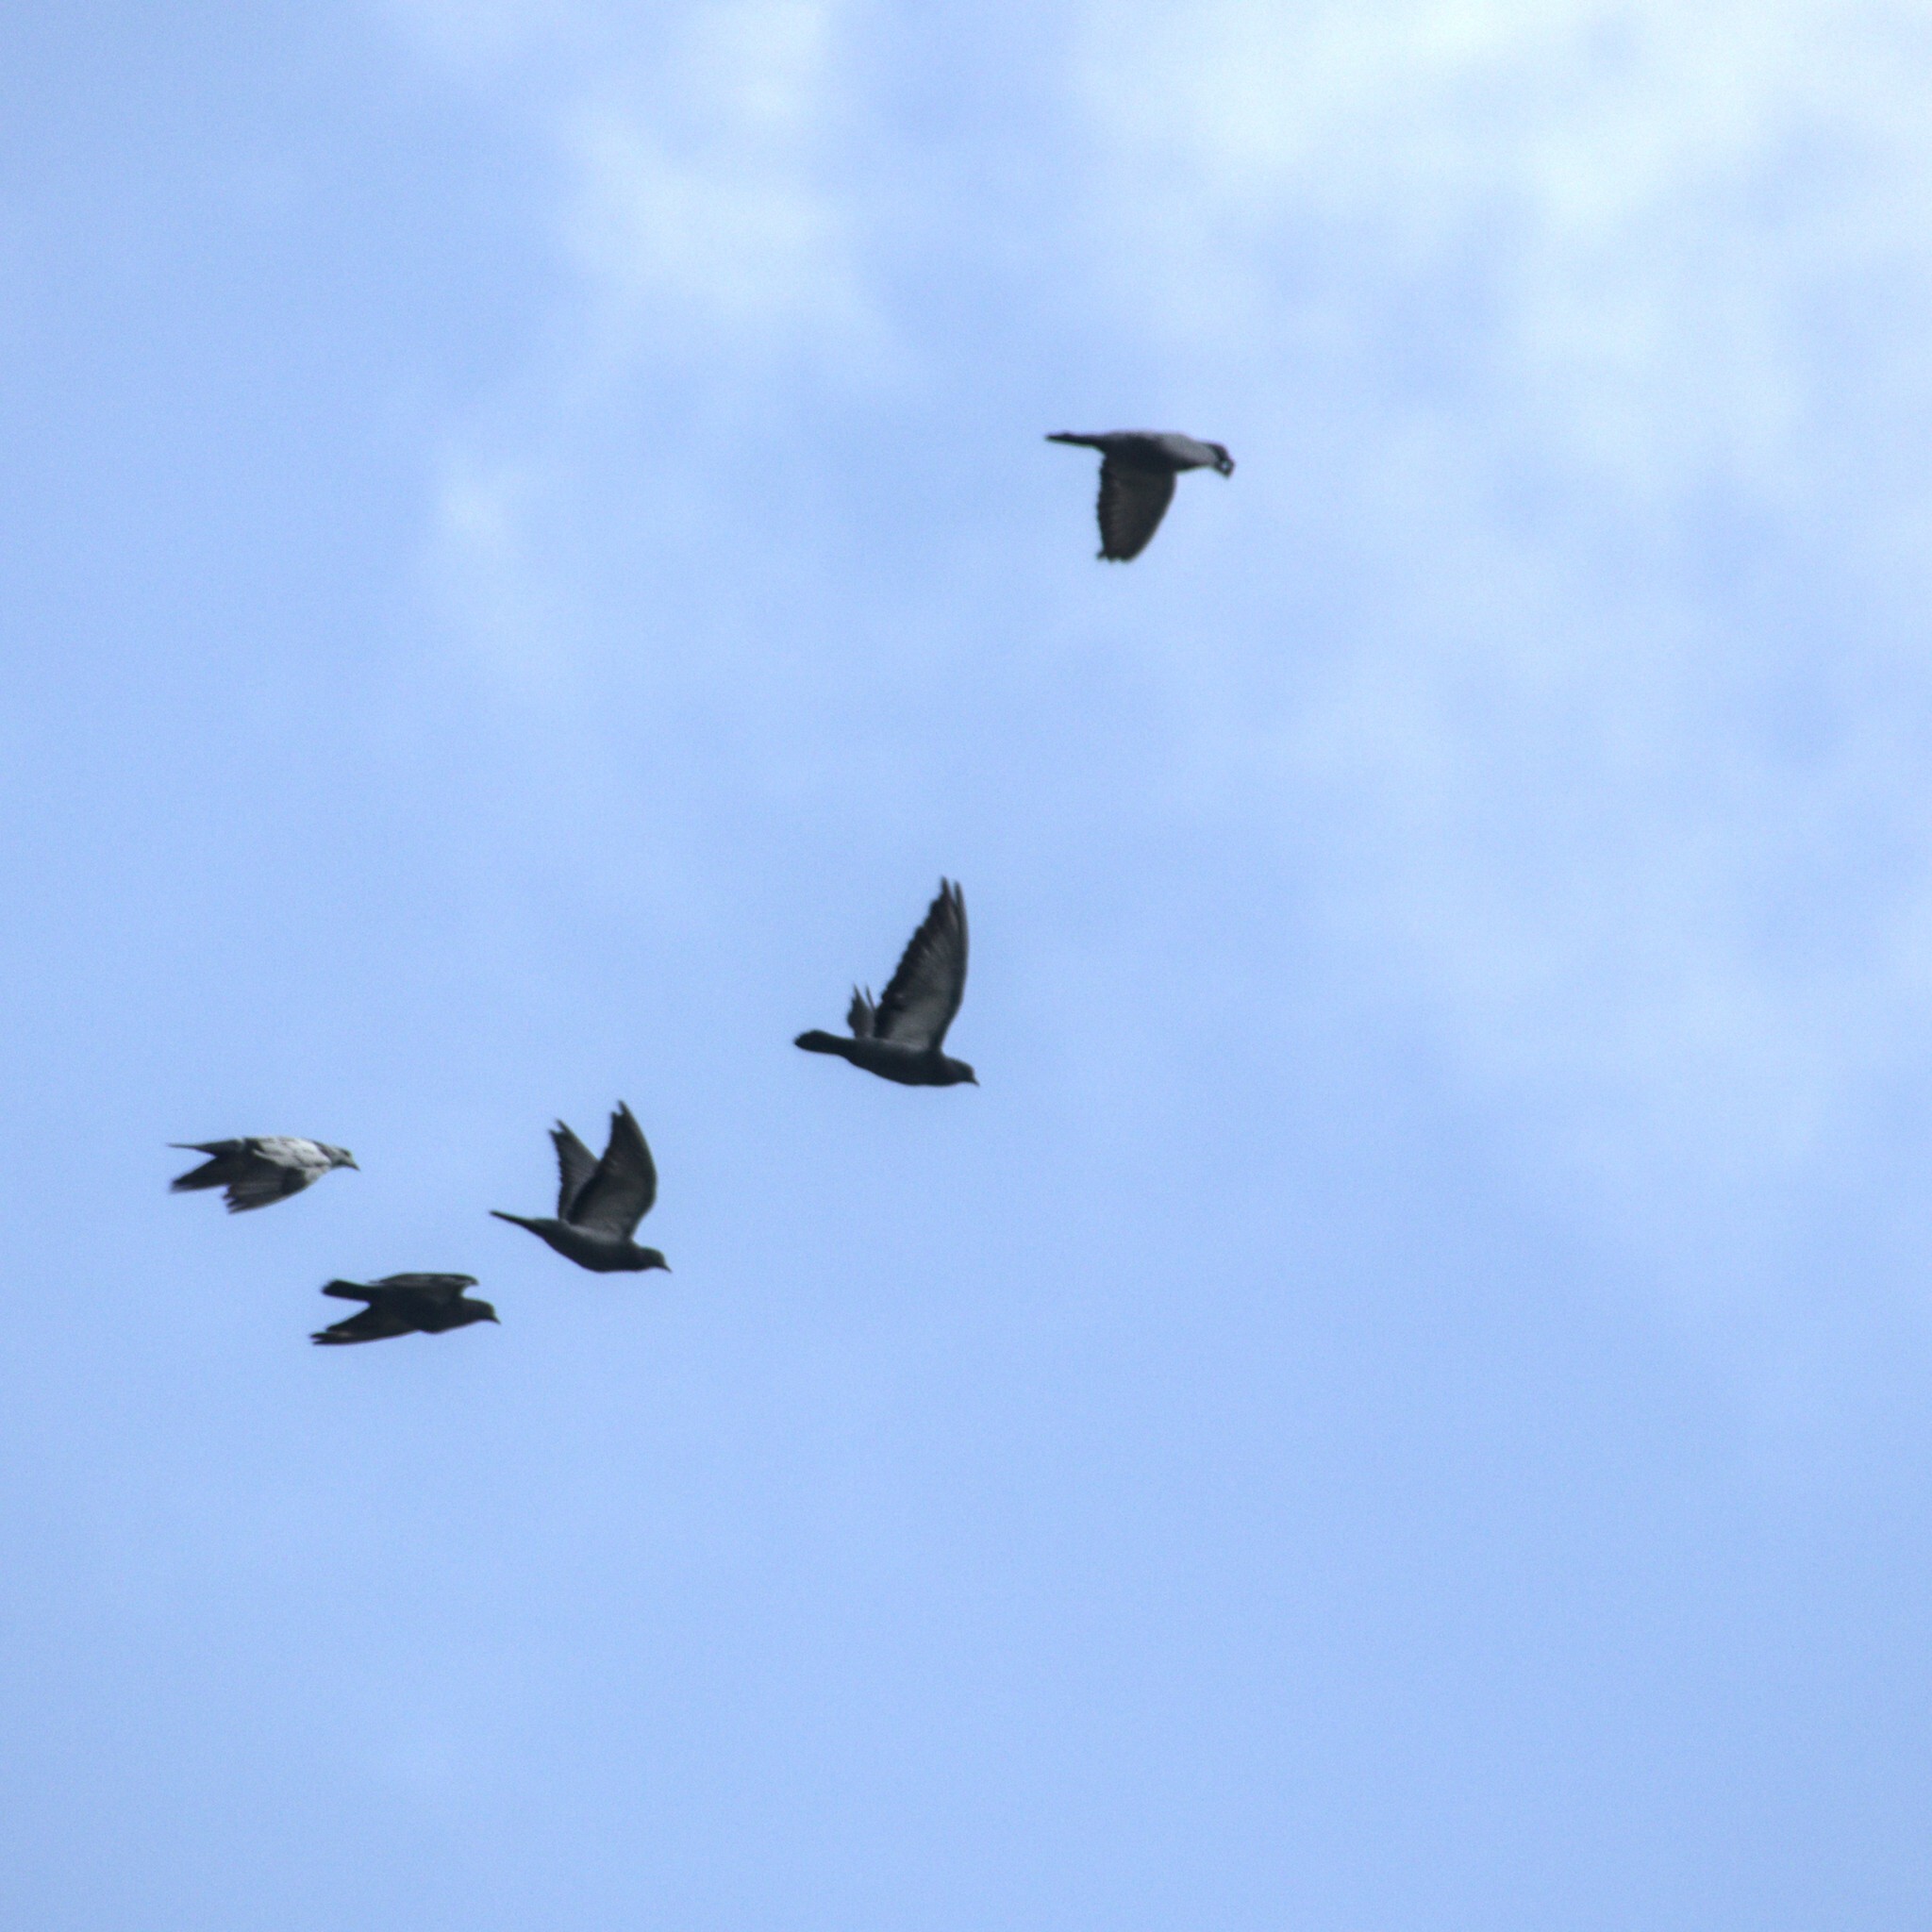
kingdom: Animalia
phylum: Chordata
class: Aves
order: Columbiformes
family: Columbidae
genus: Columba
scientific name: Columba livia
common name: Rock pigeon
